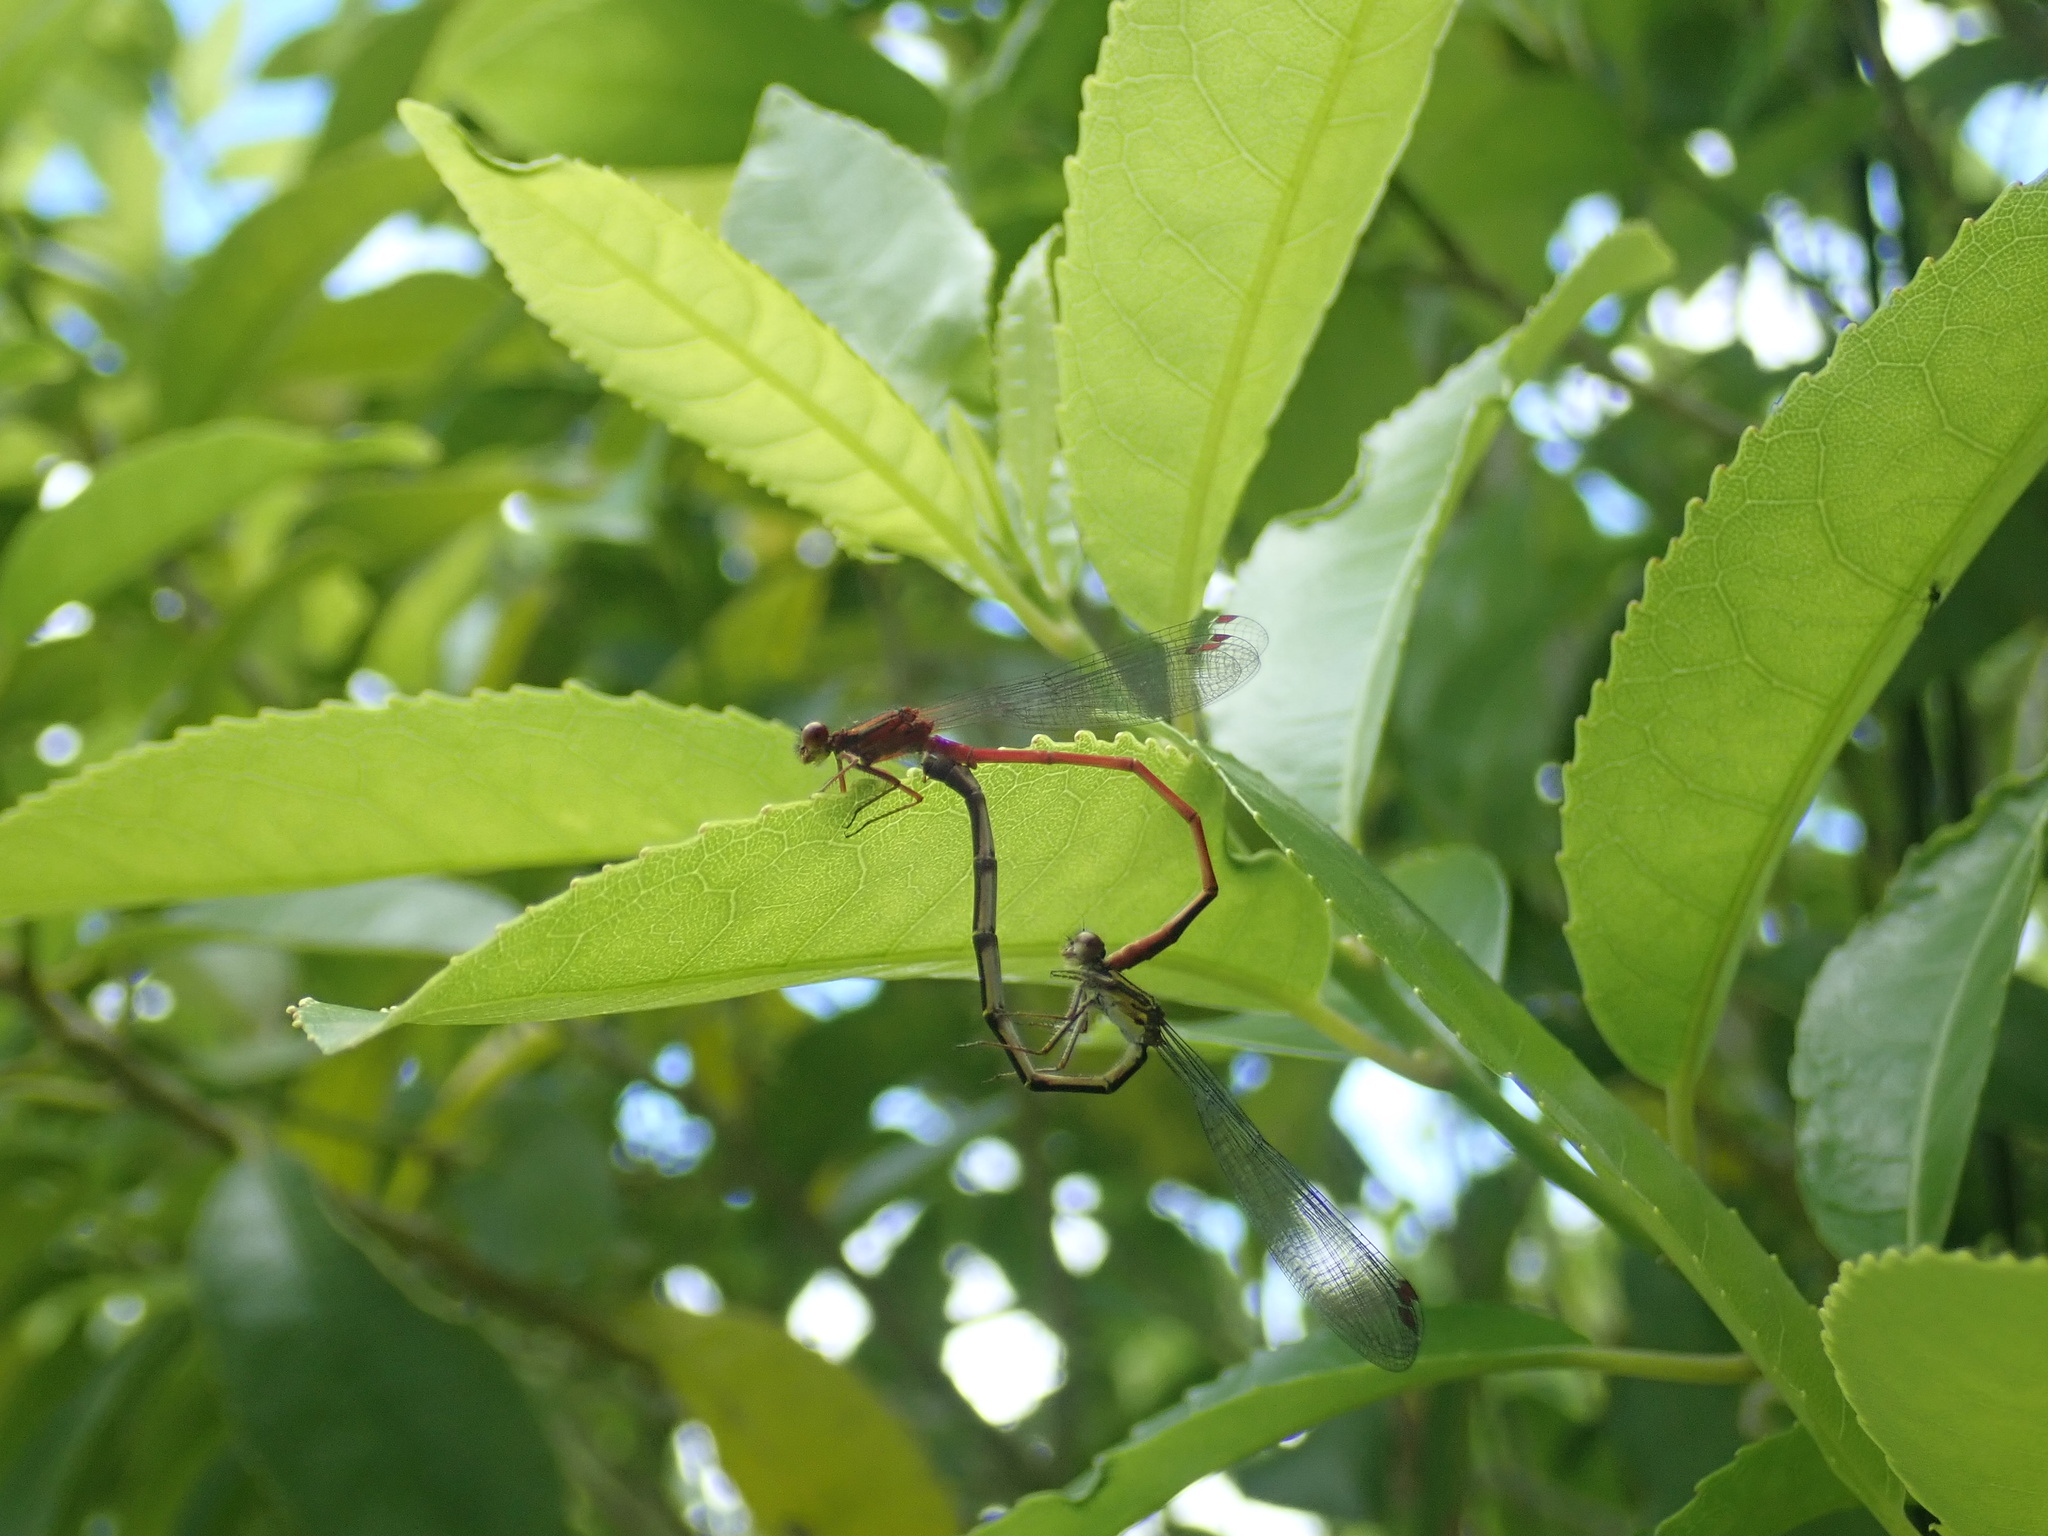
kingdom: Animalia
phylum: Arthropoda
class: Insecta
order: Odonata
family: Coenagrionidae
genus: Xanthocnemis
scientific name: Xanthocnemis zealandica
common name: Common redcoat damselfly
